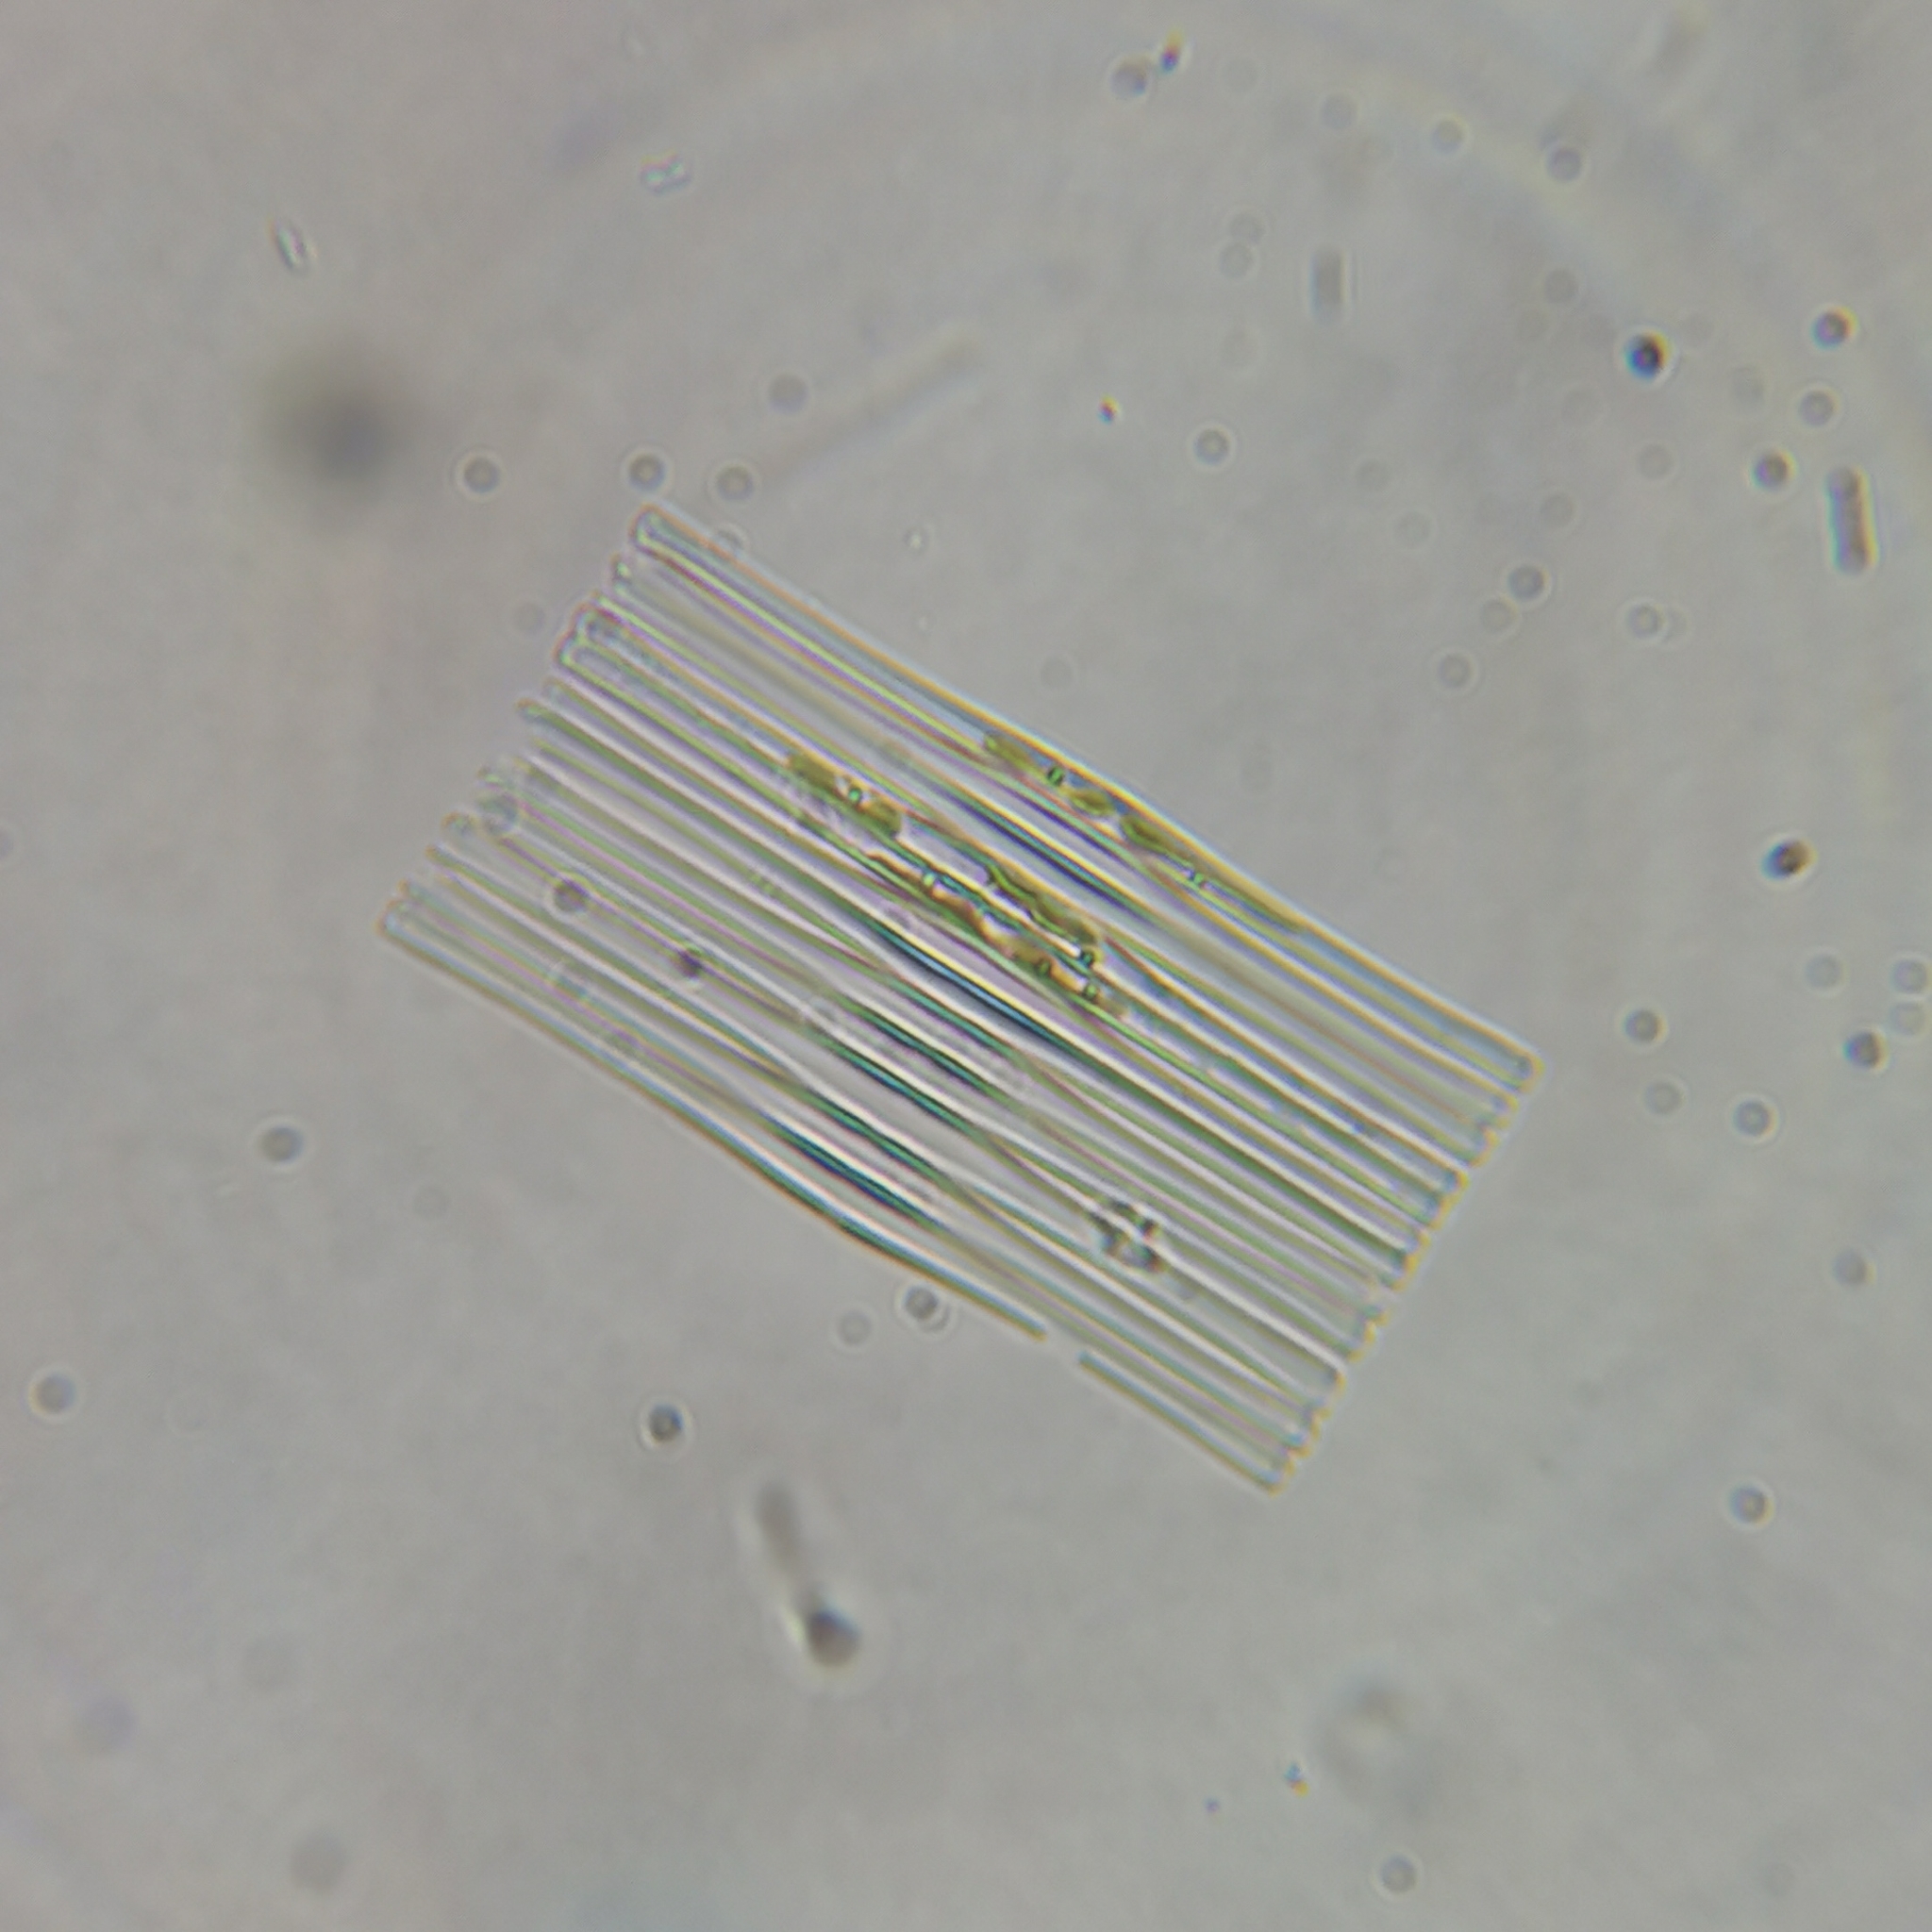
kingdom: Chromista
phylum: Ochrophyta
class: Bacillariophyceae
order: Fragilariales
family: Fragilariaceae
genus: Fragilaria
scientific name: Fragilaria crotonensis
